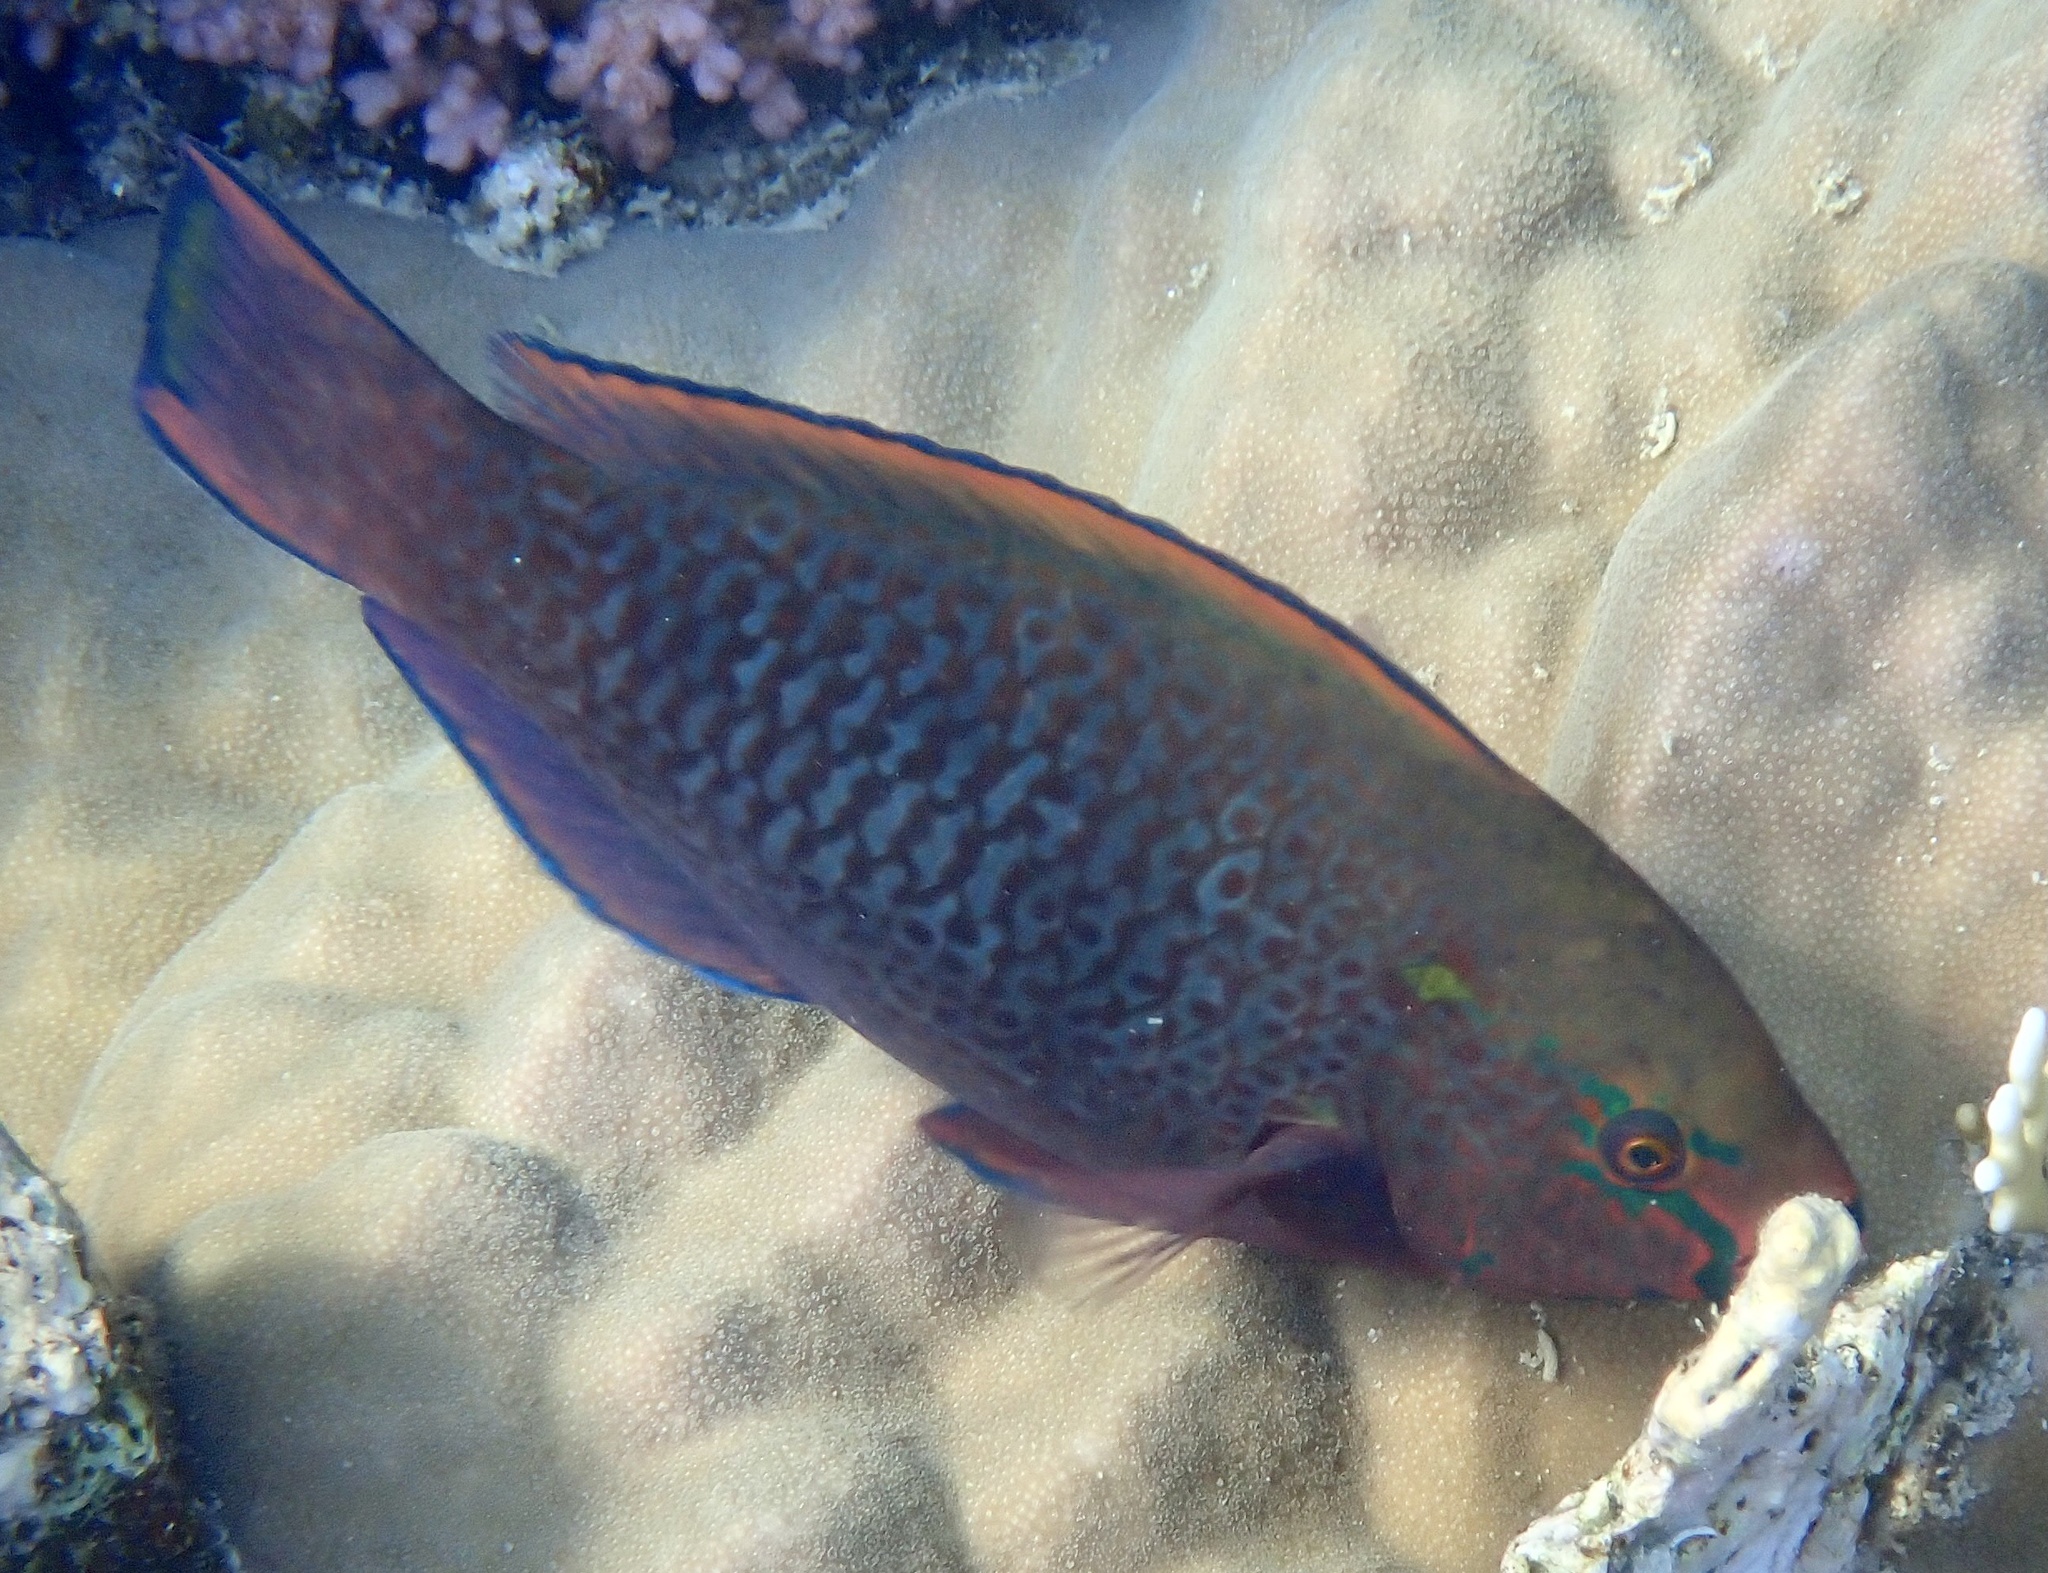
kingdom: Animalia
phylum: Chordata
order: Perciformes
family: Scaridae
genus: Scarus
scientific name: Scarus niger
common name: Dusky parrotfish
